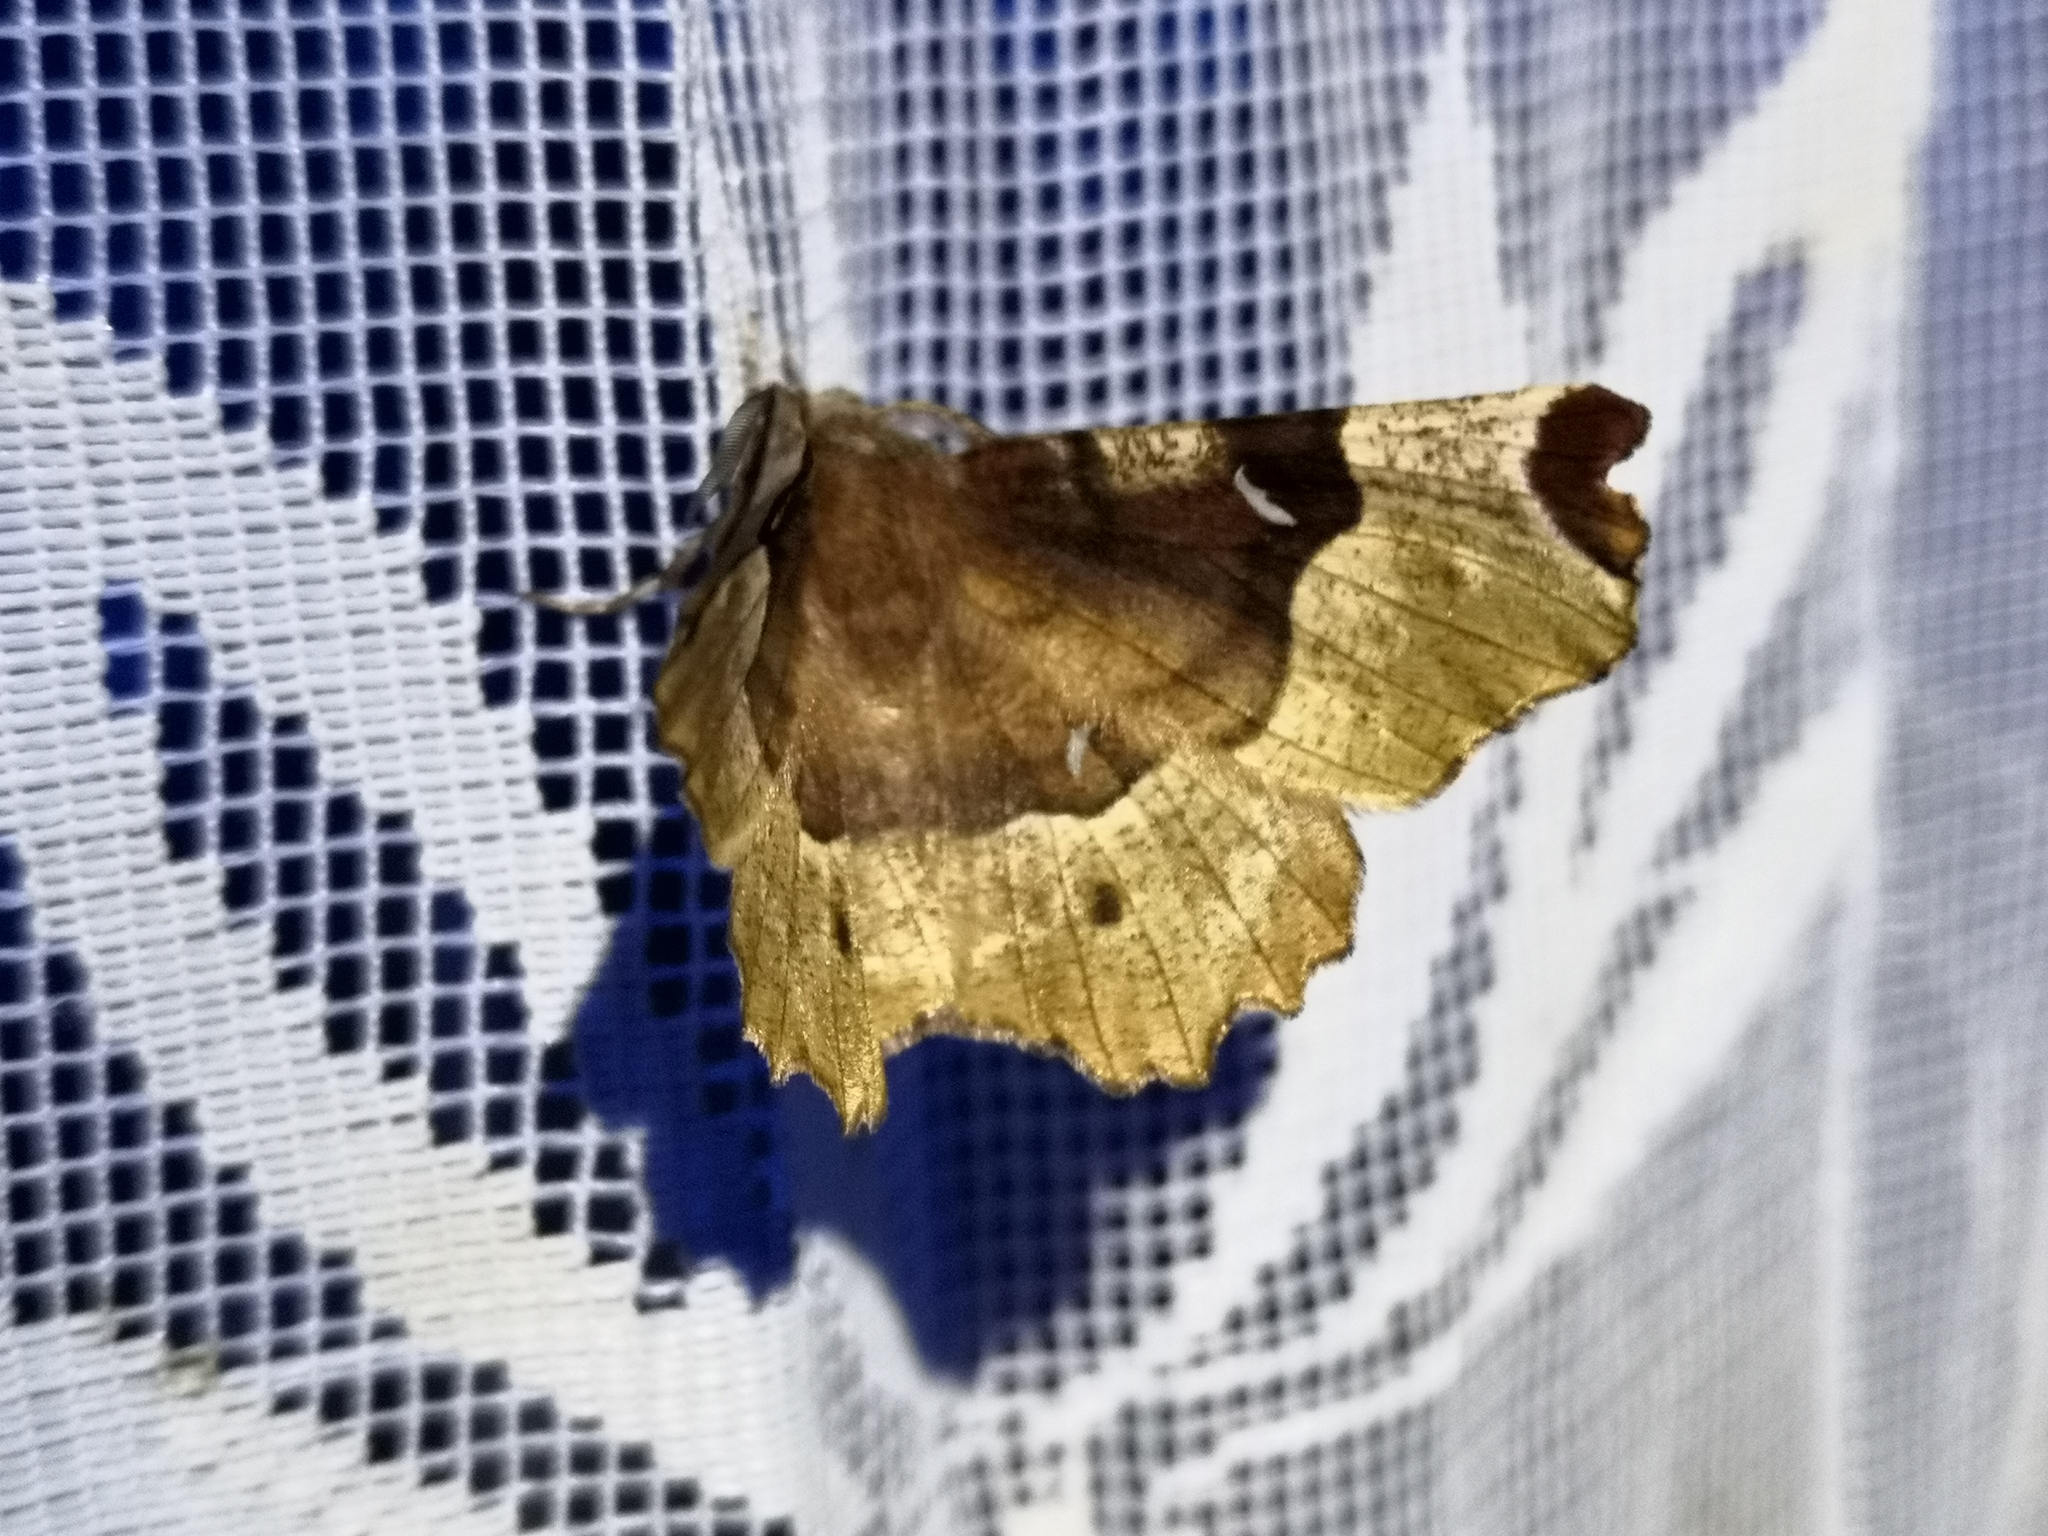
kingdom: Animalia
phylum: Arthropoda
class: Insecta
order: Lepidoptera
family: Geometridae
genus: Selenia
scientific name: Selenia tetralunaria
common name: Purple thorn
